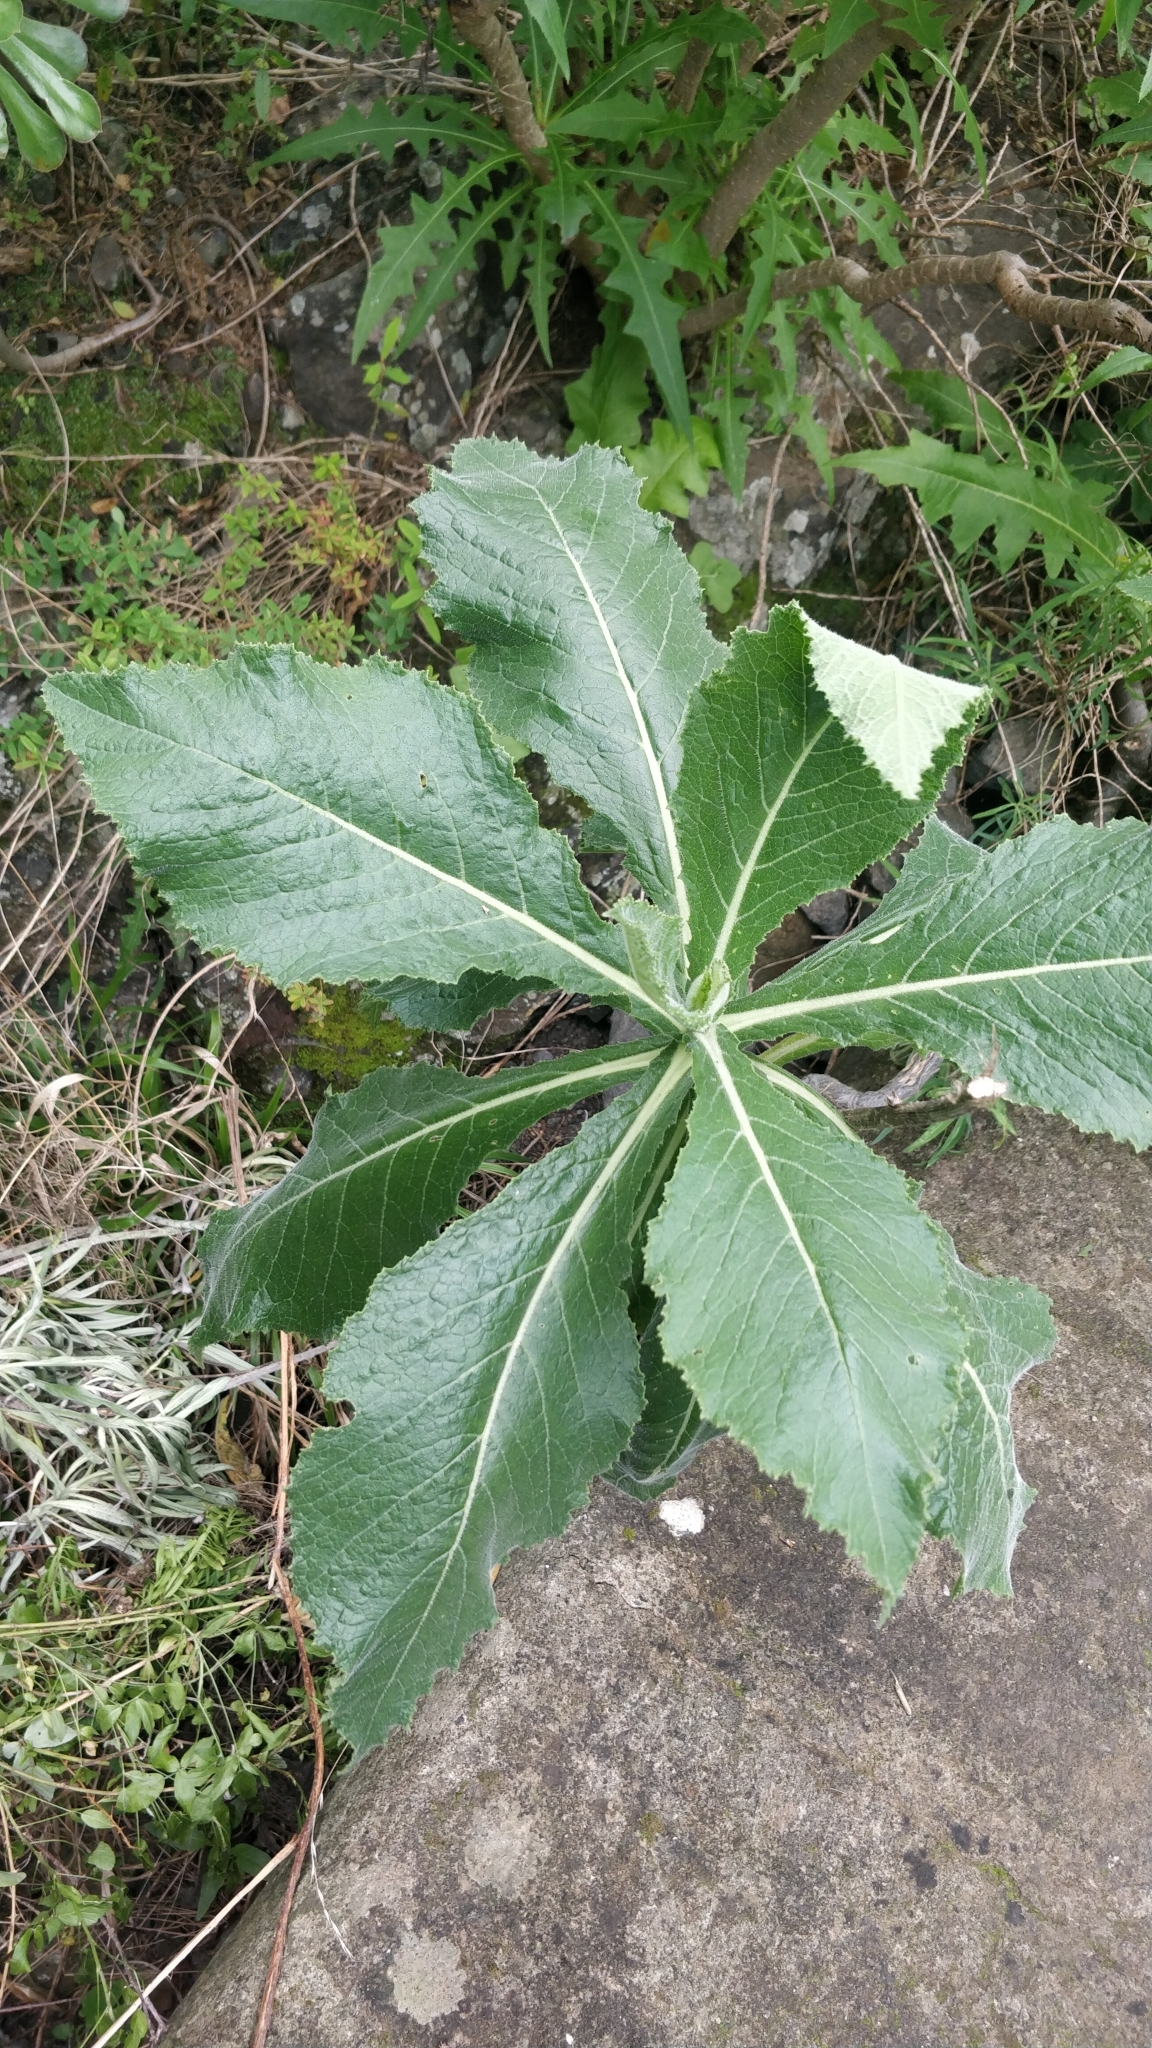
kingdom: Plantae
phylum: Tracheophyta
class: Magnoliopsida
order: Brassicales
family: Brassicaceae
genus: Crambe
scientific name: Crambe strigosa
